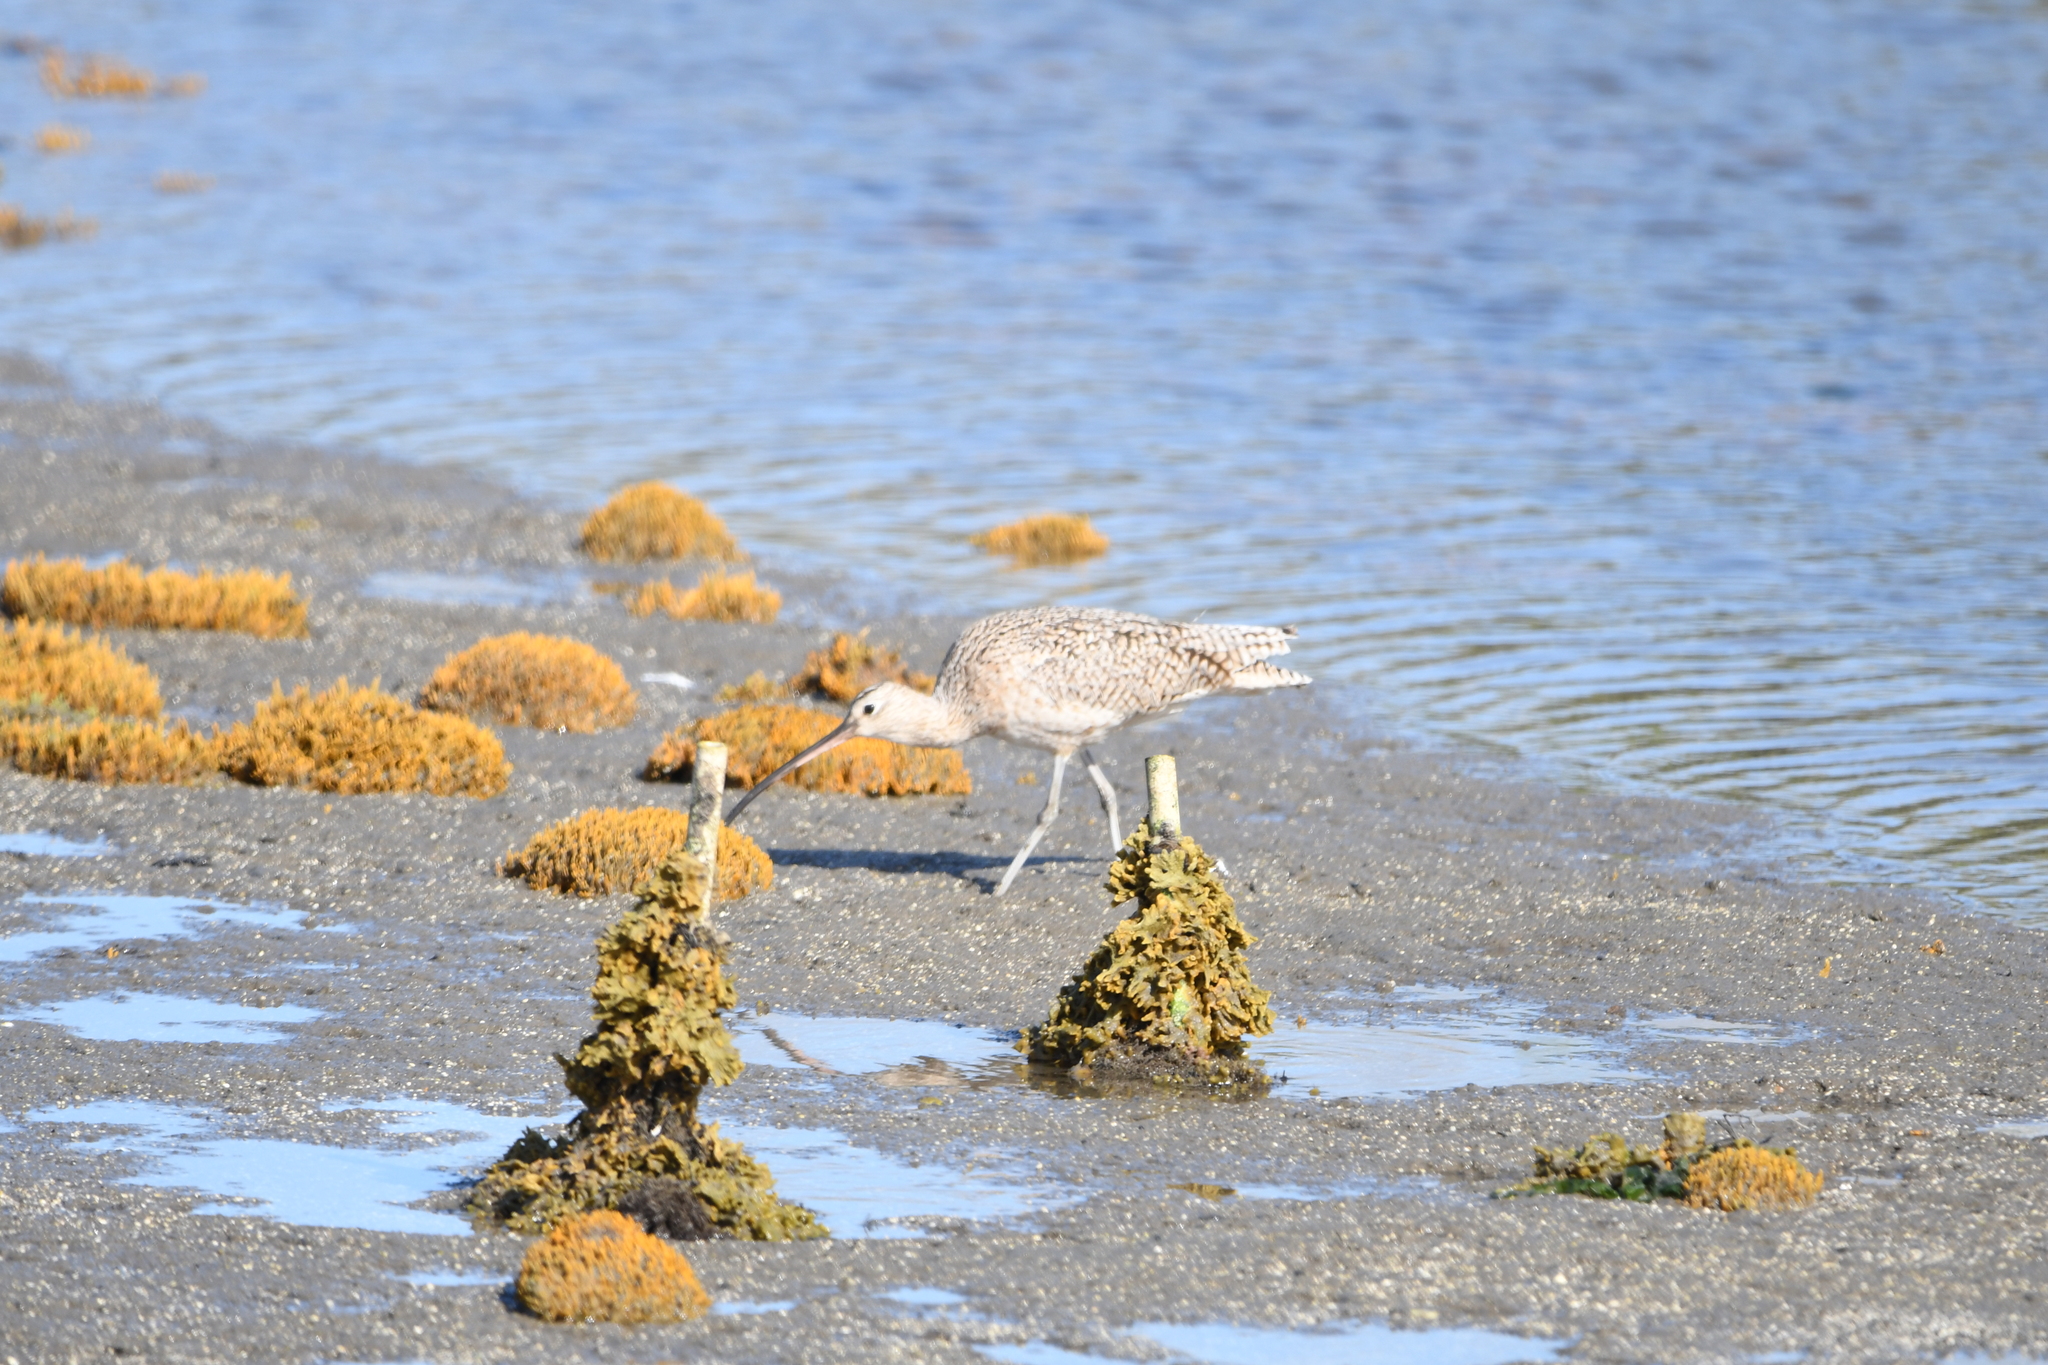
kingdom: Animalia
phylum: Chordata
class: Aves
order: Charadriiformes
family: Scolopacidae
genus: Numenius
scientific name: Numenius americanus
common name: Long-billed curlew
